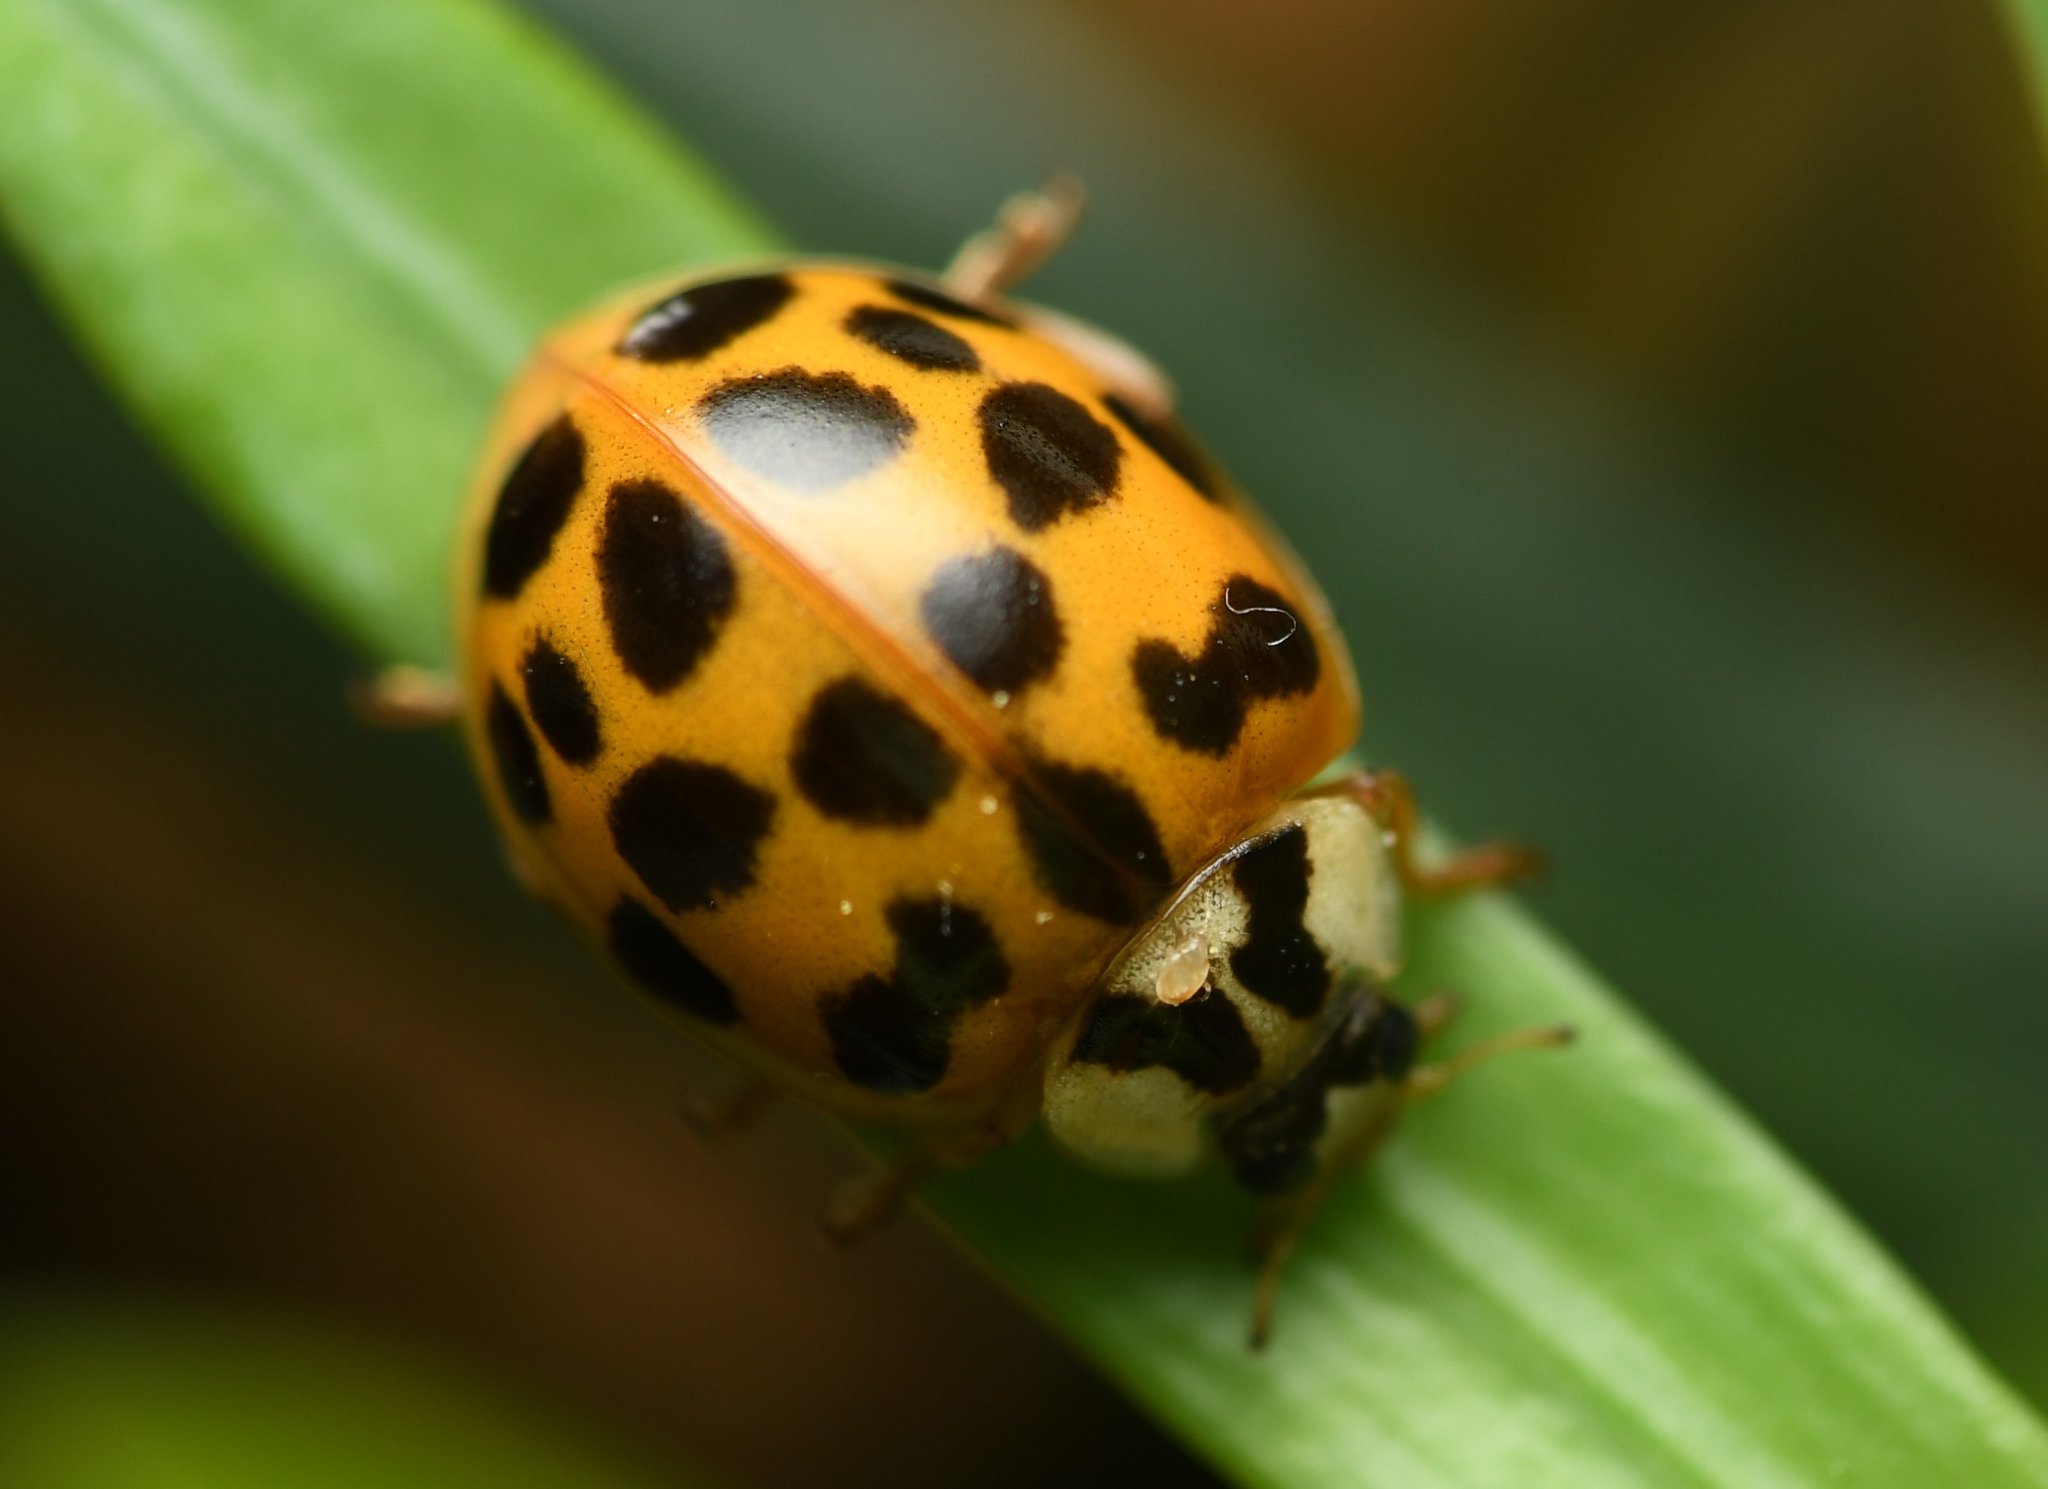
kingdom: Animalia
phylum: Arthropoda
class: Insecta
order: Coleoptera
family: Coccinellidae
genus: Harmonia
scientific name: Harmonia axyridis
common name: Harlequin ladybird
